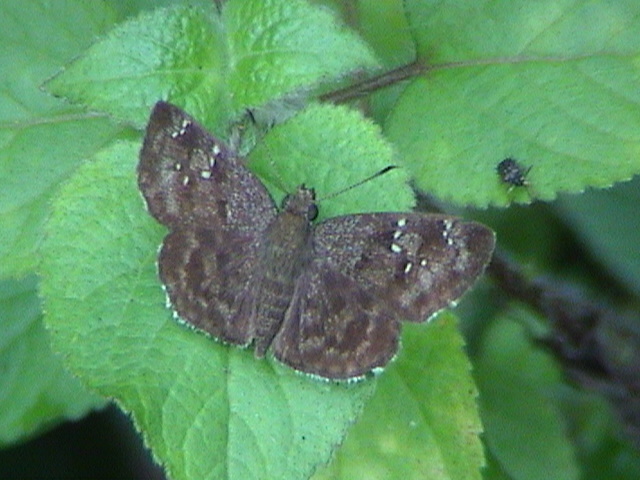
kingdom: Animalia
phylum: Arthropoda
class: Insecta
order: Lepidoptera
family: Hesperiidae
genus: Sarangesa
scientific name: Sarangesa dasahara
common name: Common small flat
